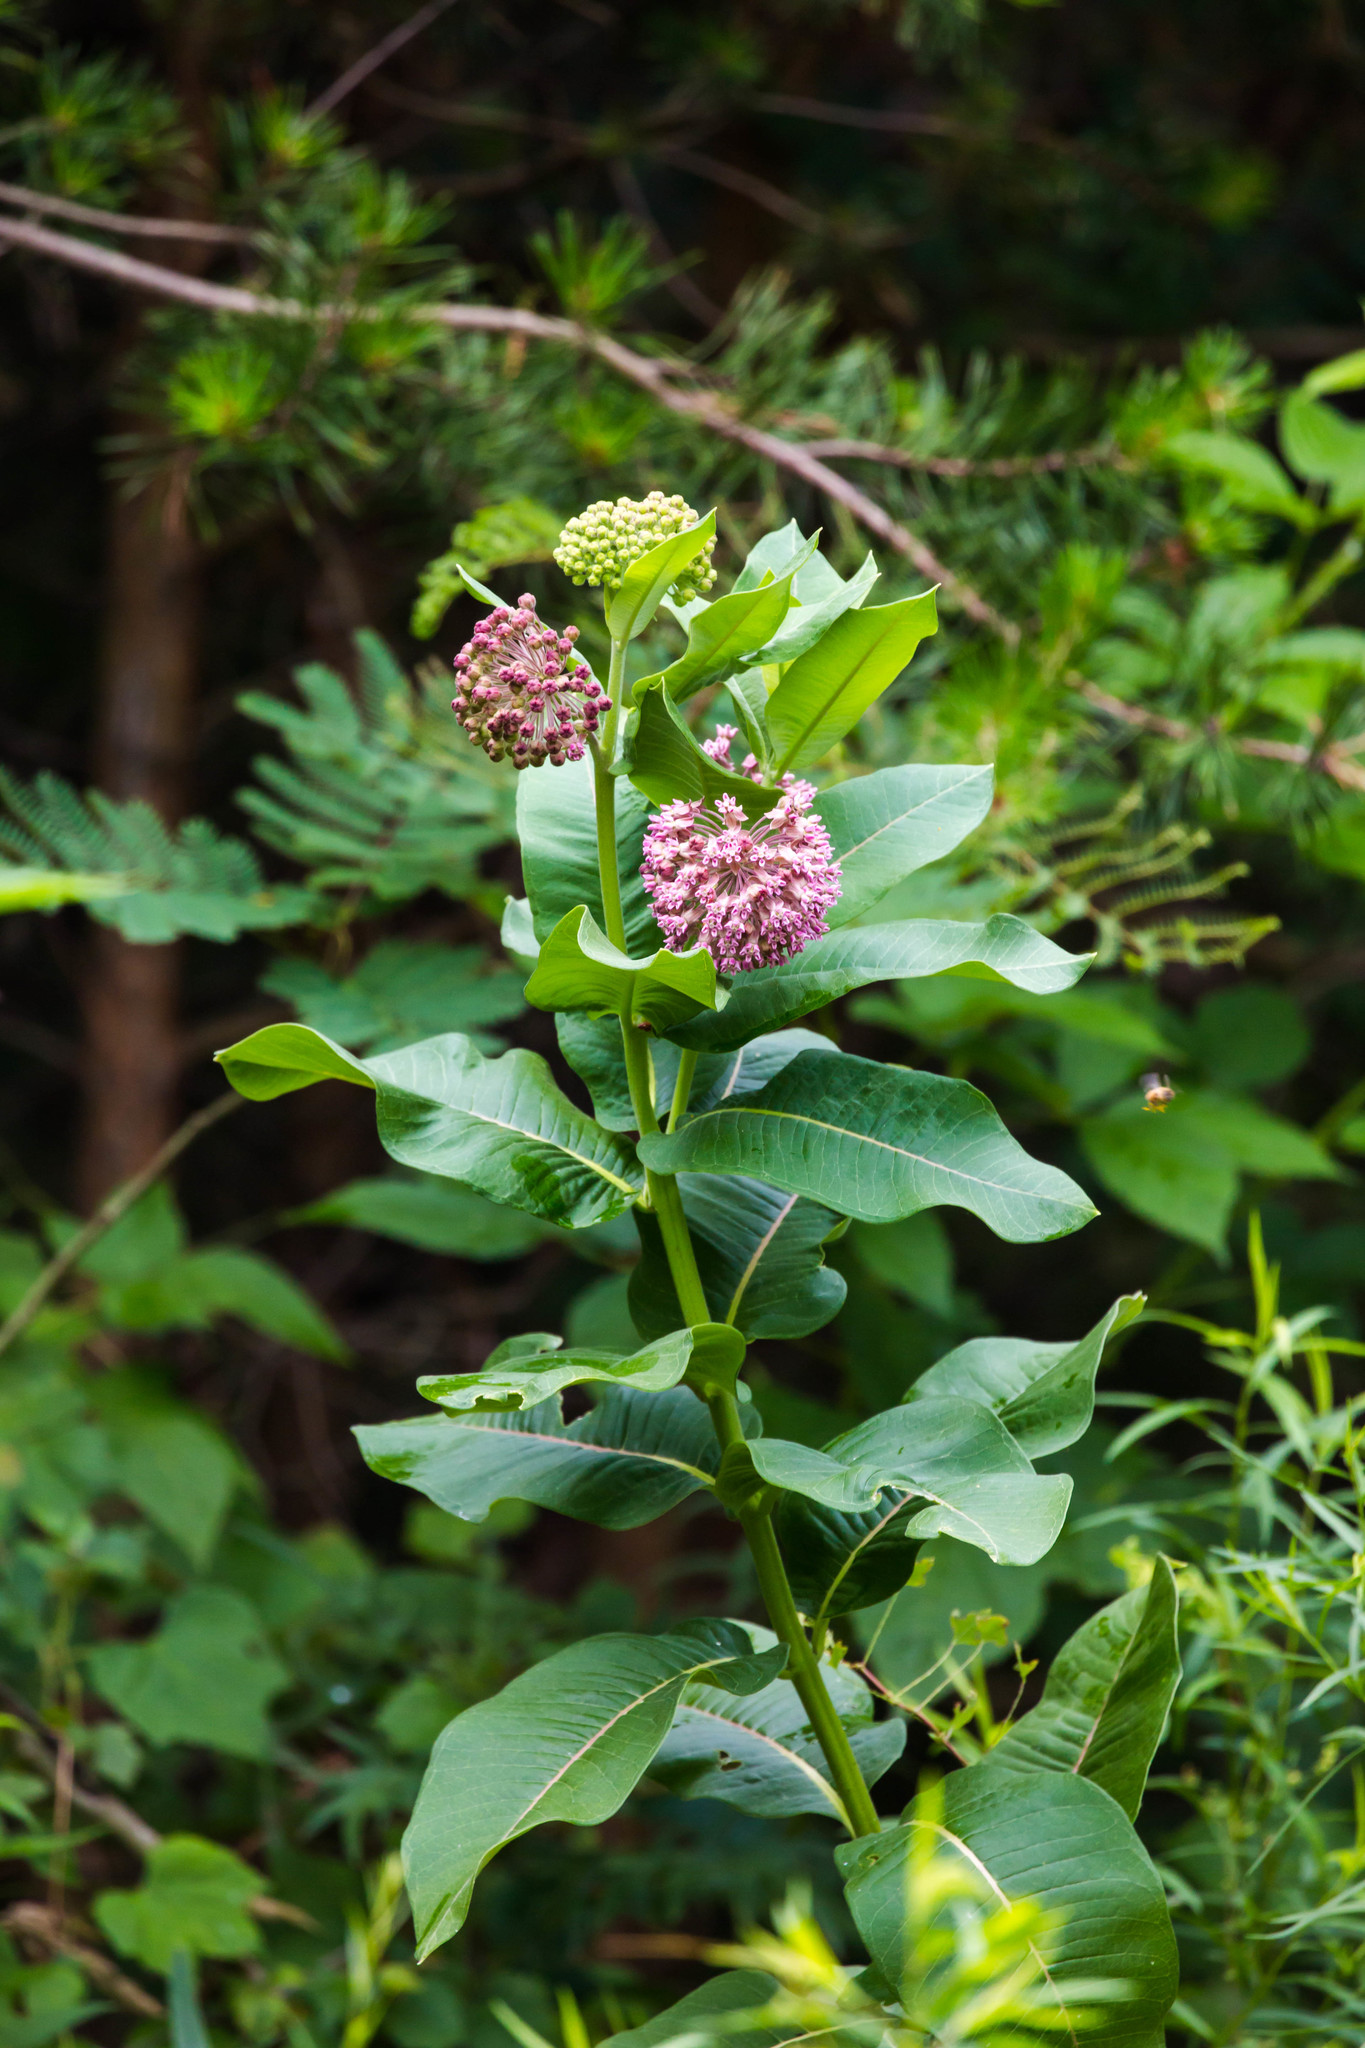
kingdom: Plantae
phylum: Tracheophyta
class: Magnoliopsida
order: Gentianales
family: Apocynaceae
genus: Asclepias
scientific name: Asclepias syriaca
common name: Common milkweed
